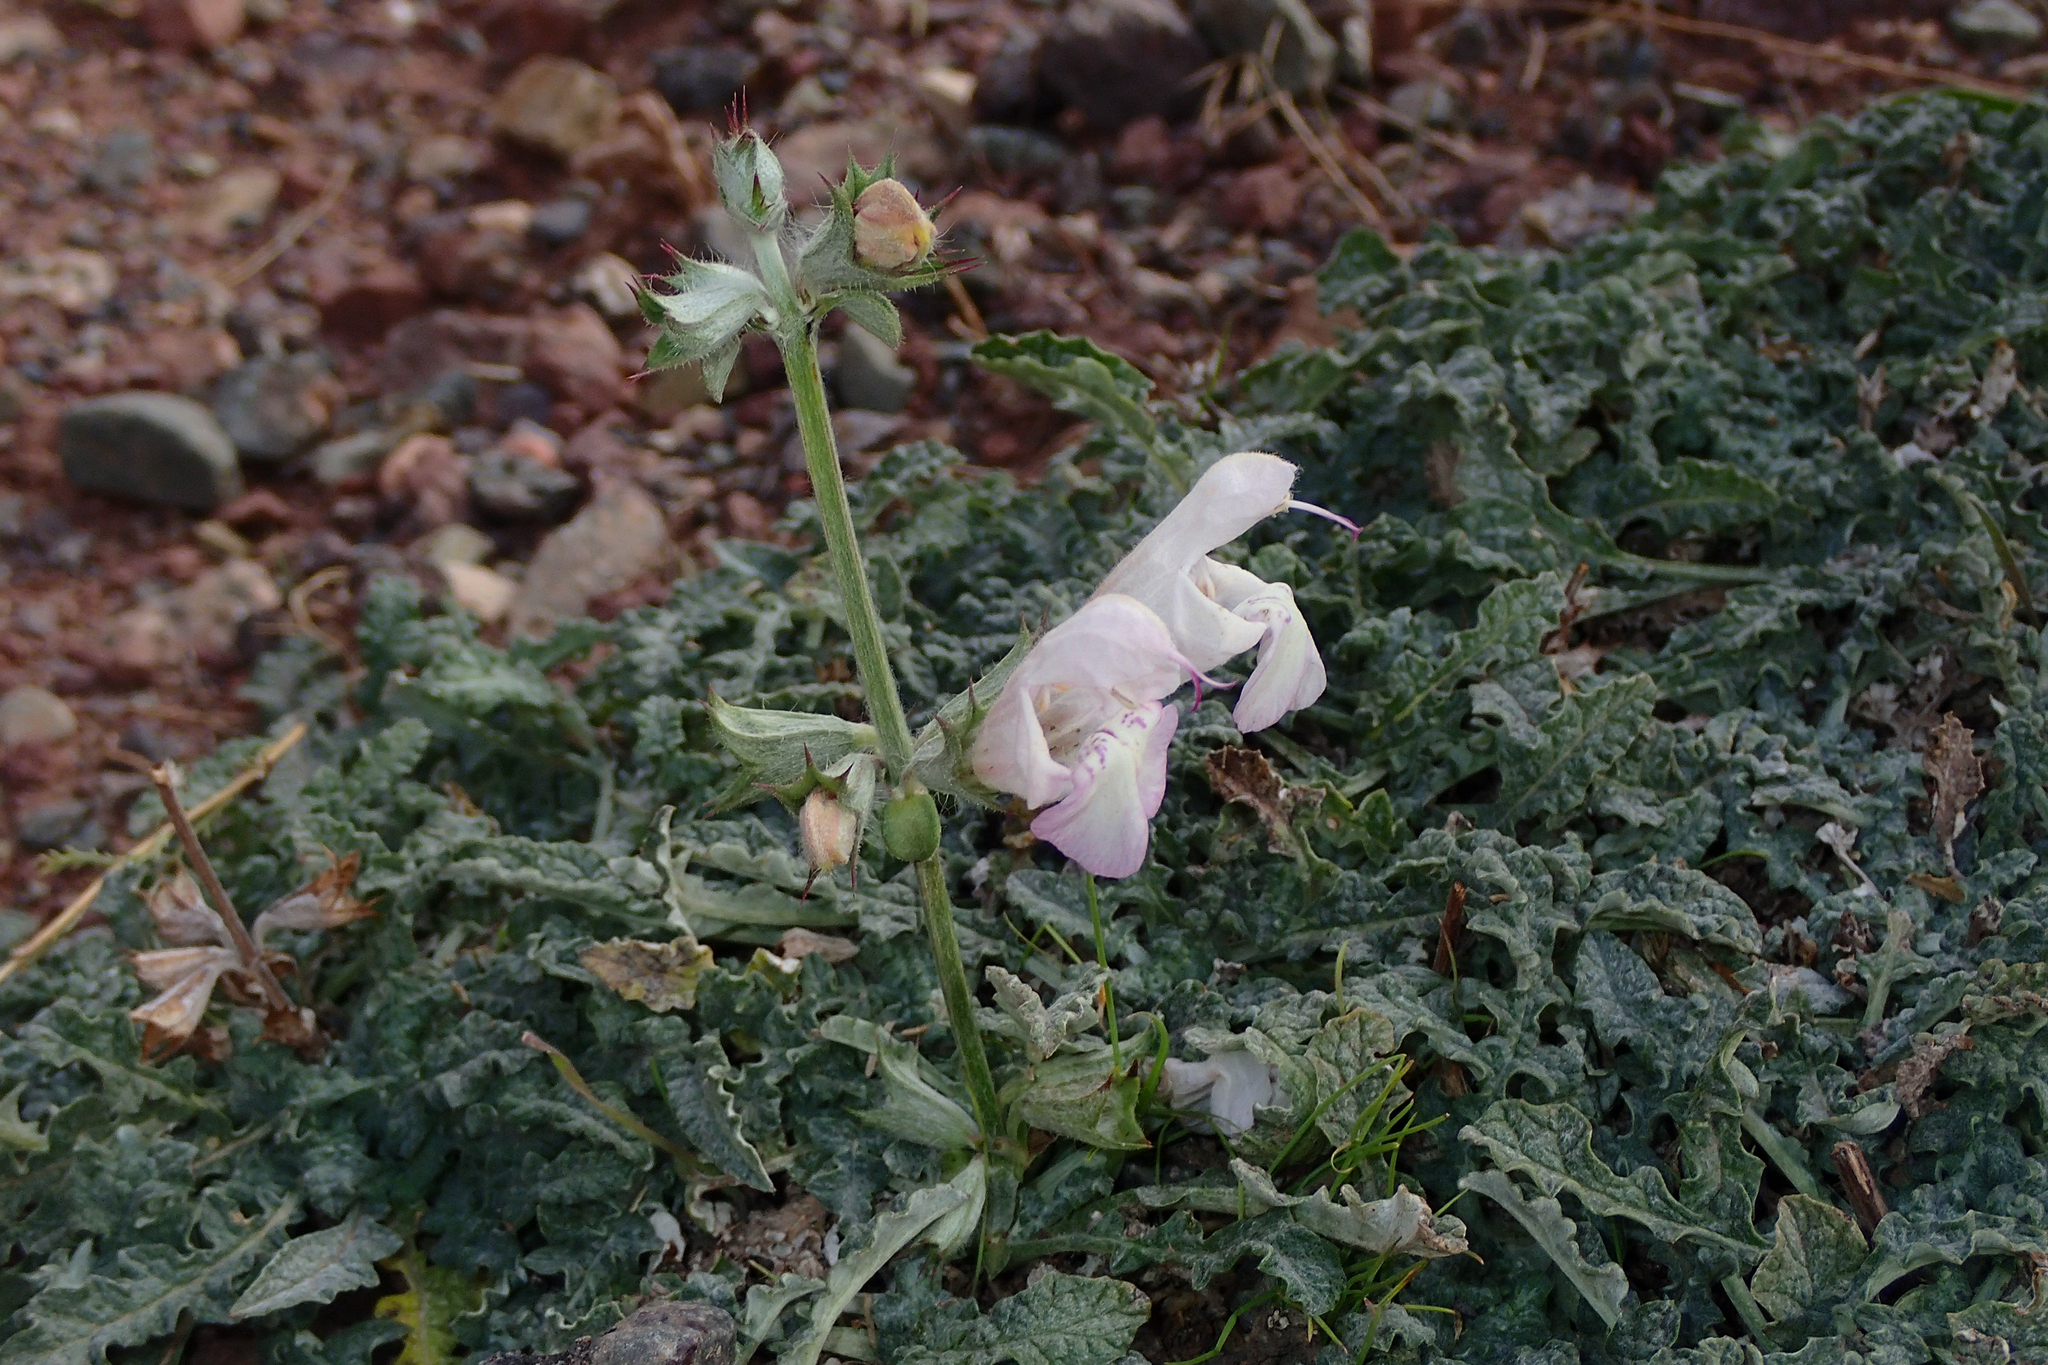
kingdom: Plantae
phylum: Tracheophyta
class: Magnoliopsida
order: Lamiales
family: Lamiaceae
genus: Salvia
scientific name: Salvia taraxacifolia
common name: Wild sage
